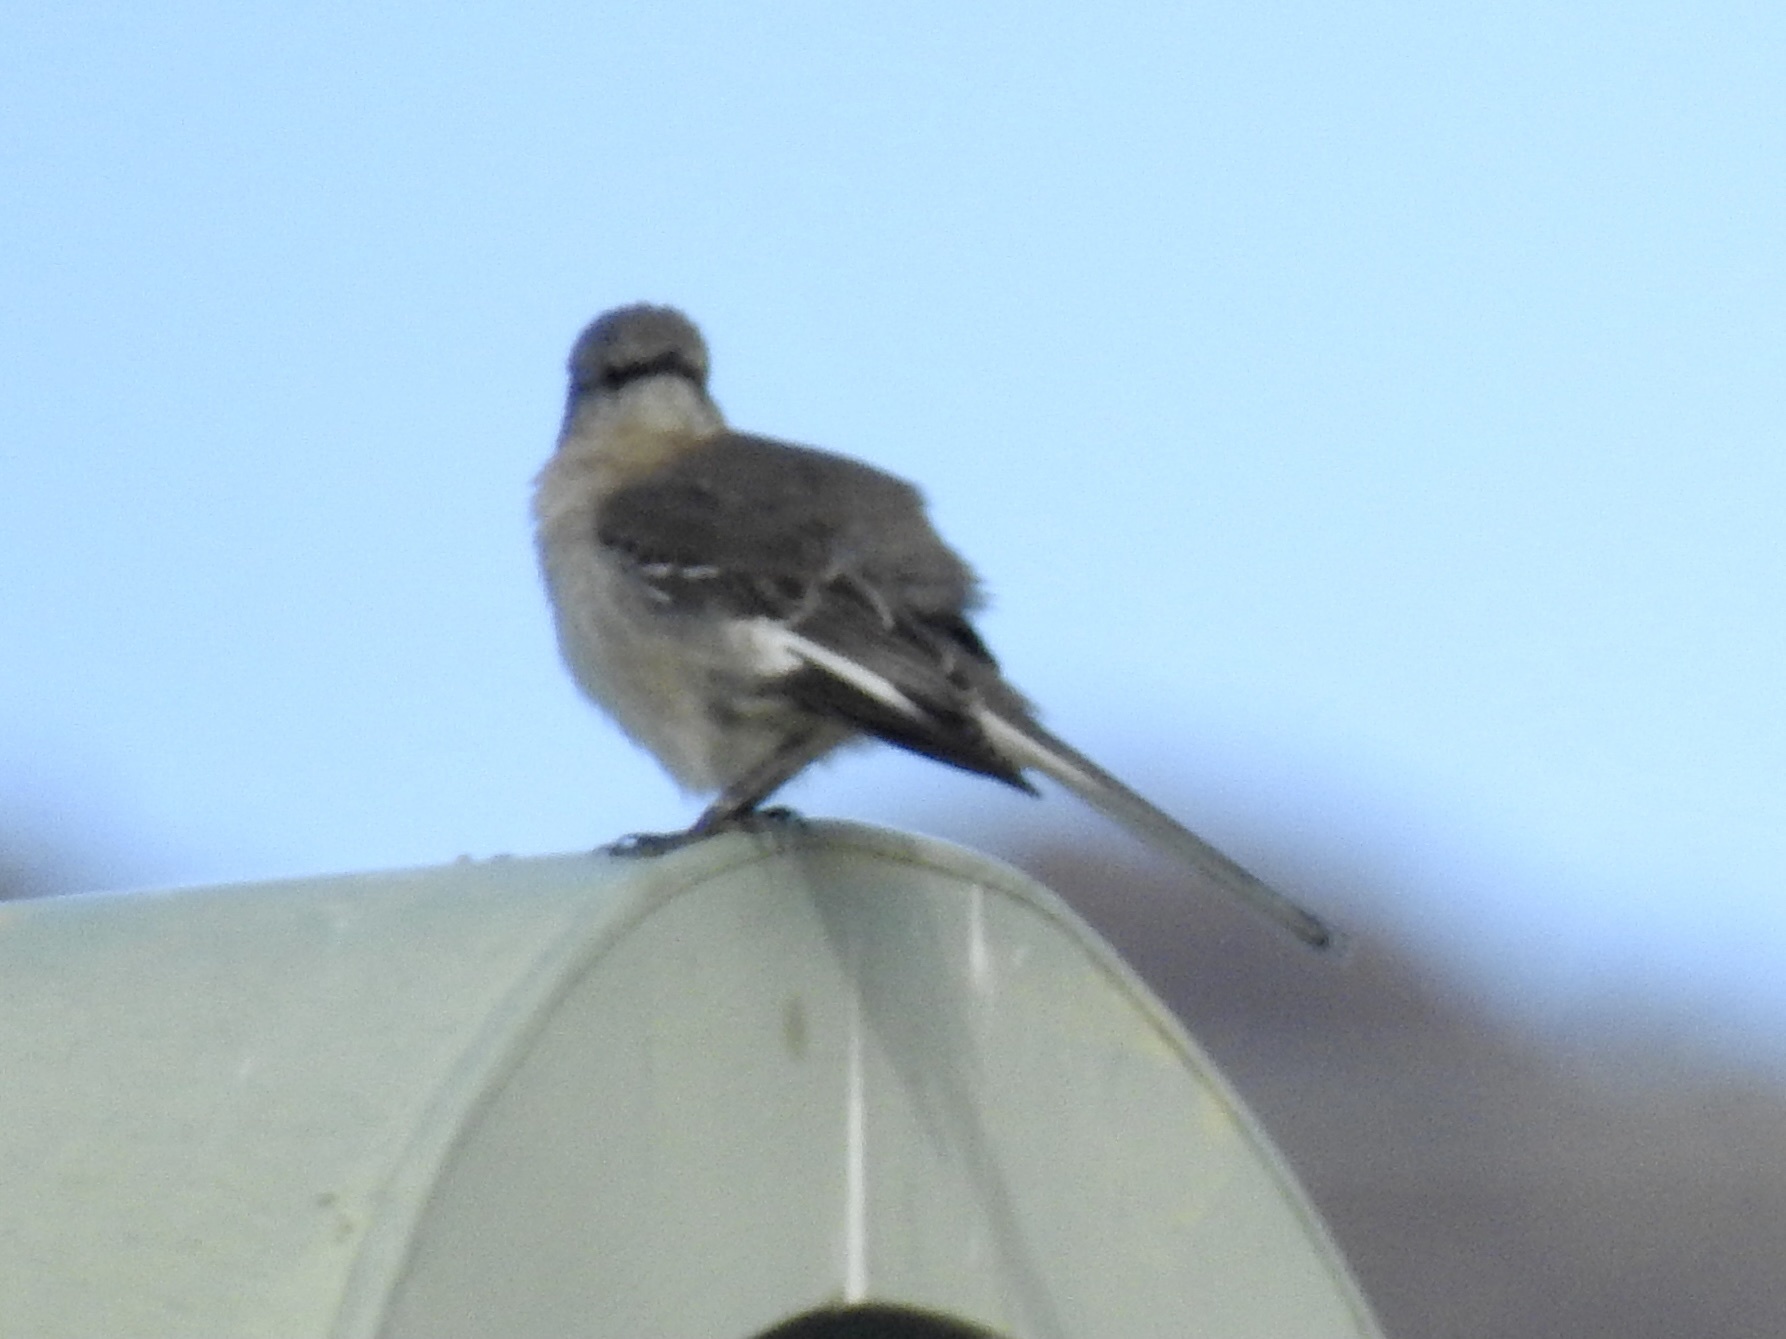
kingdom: Animalia
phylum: Chordata
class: Aves
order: Passeriformes
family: Mimidae
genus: Mimus
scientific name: Mimus polyglottos
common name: Northern mockingbird
